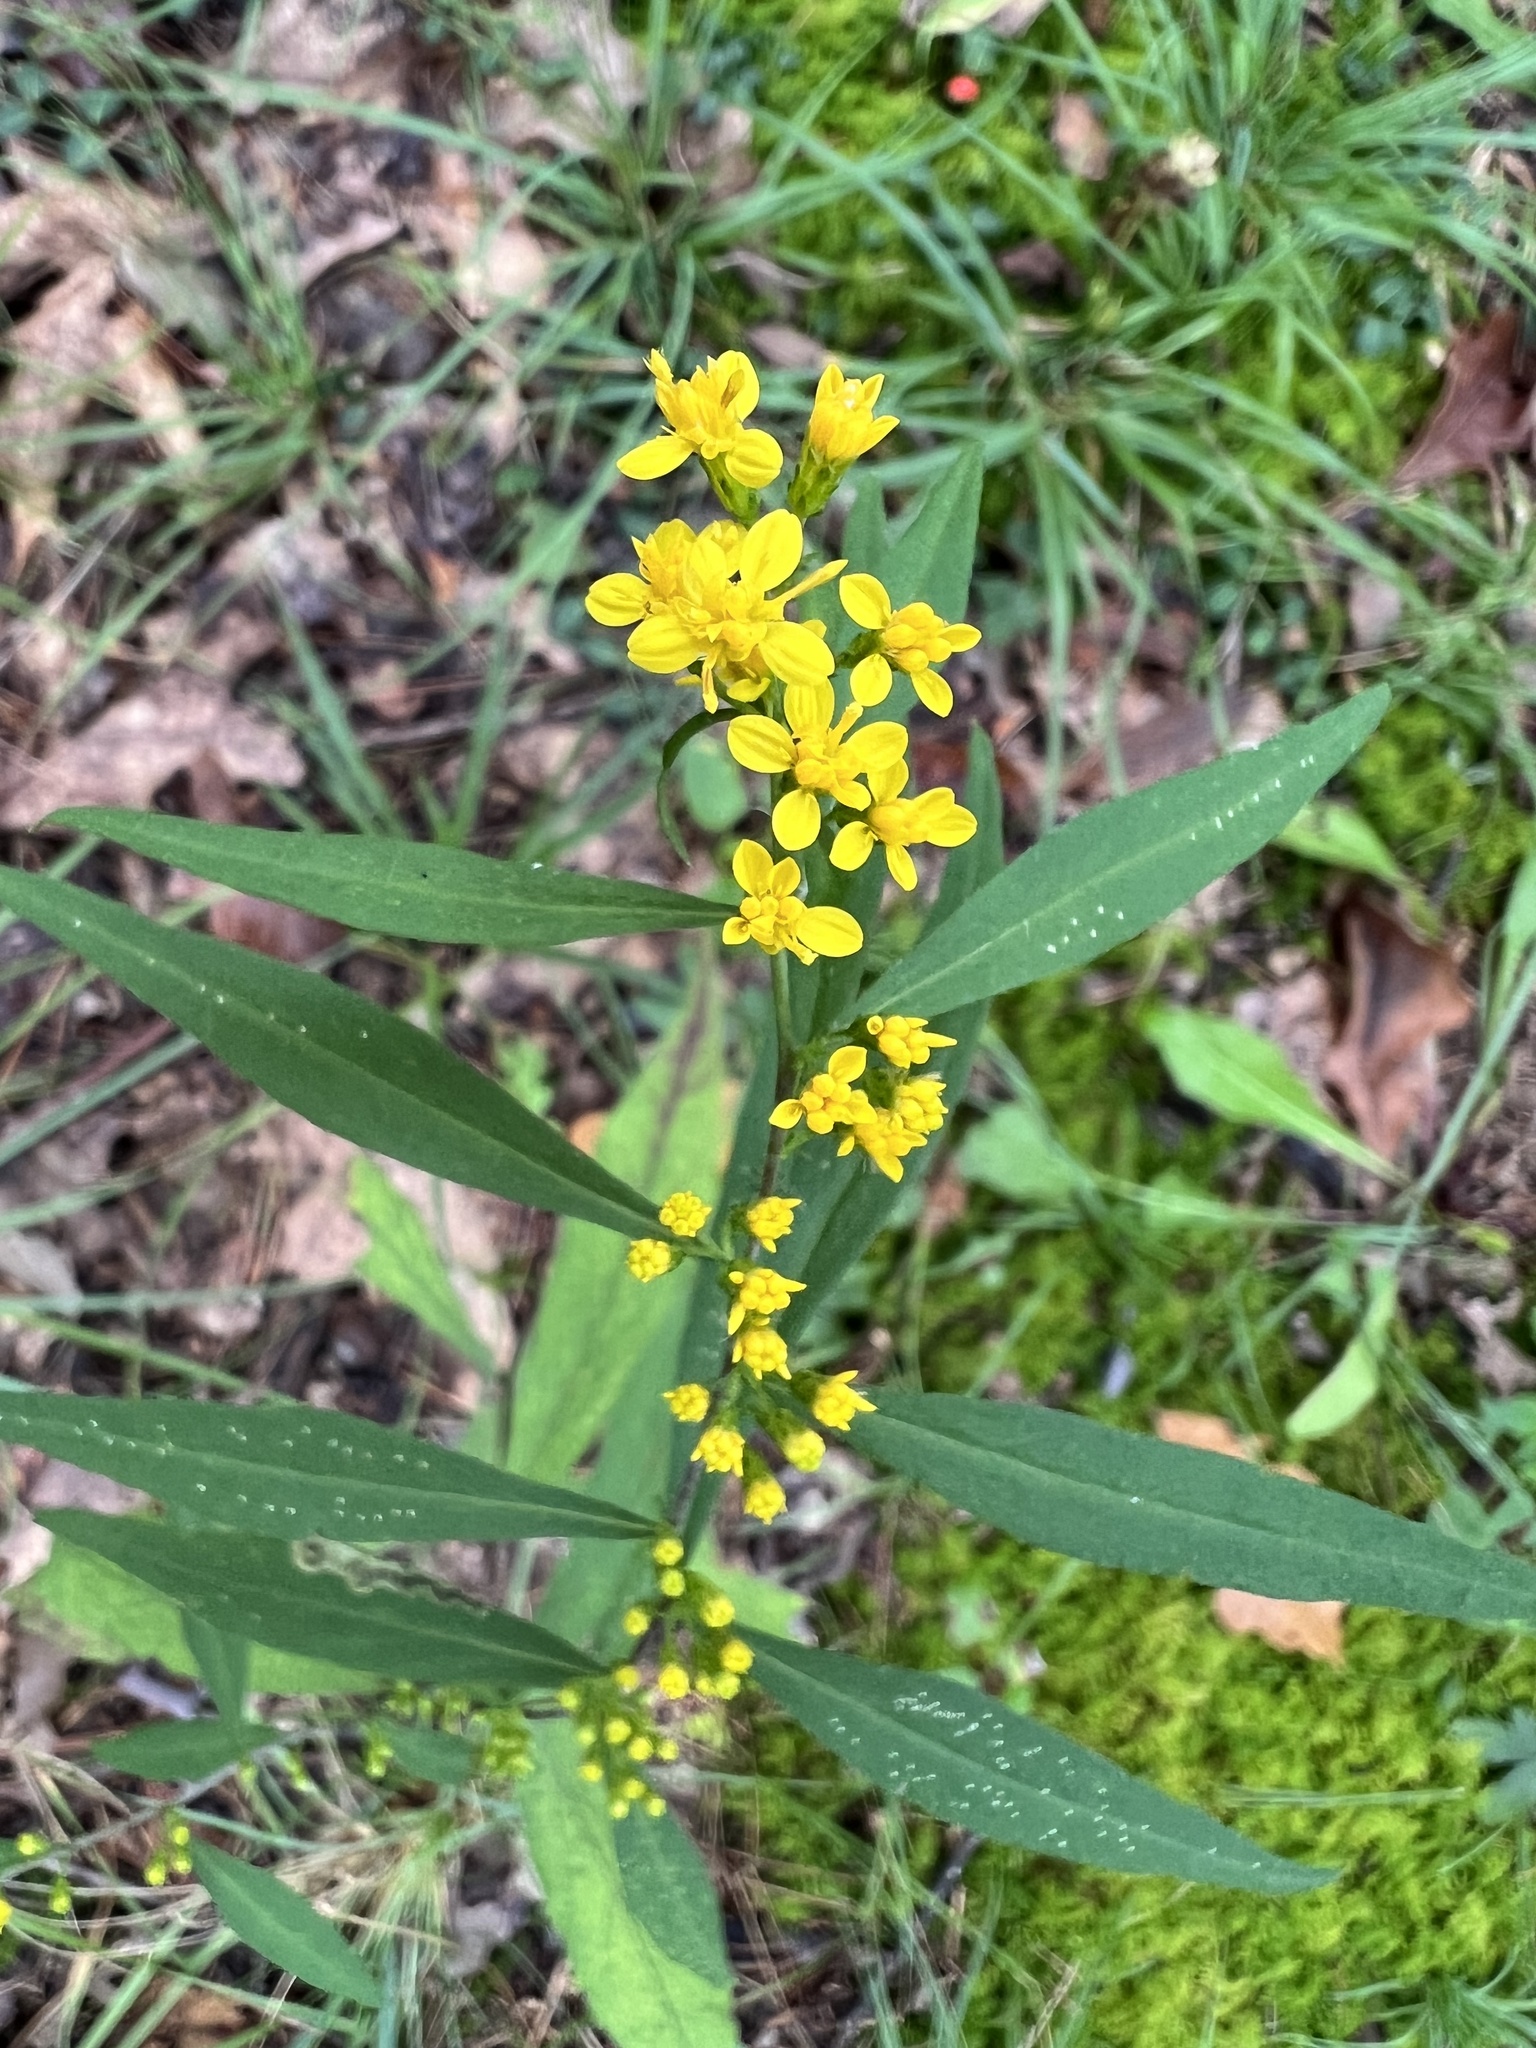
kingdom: Plantae
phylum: Tracheophyta
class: Magnoliopsida
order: Asterales
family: Asteraceae
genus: Solidago
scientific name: Solidago caesia
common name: Woodland goldenrod
